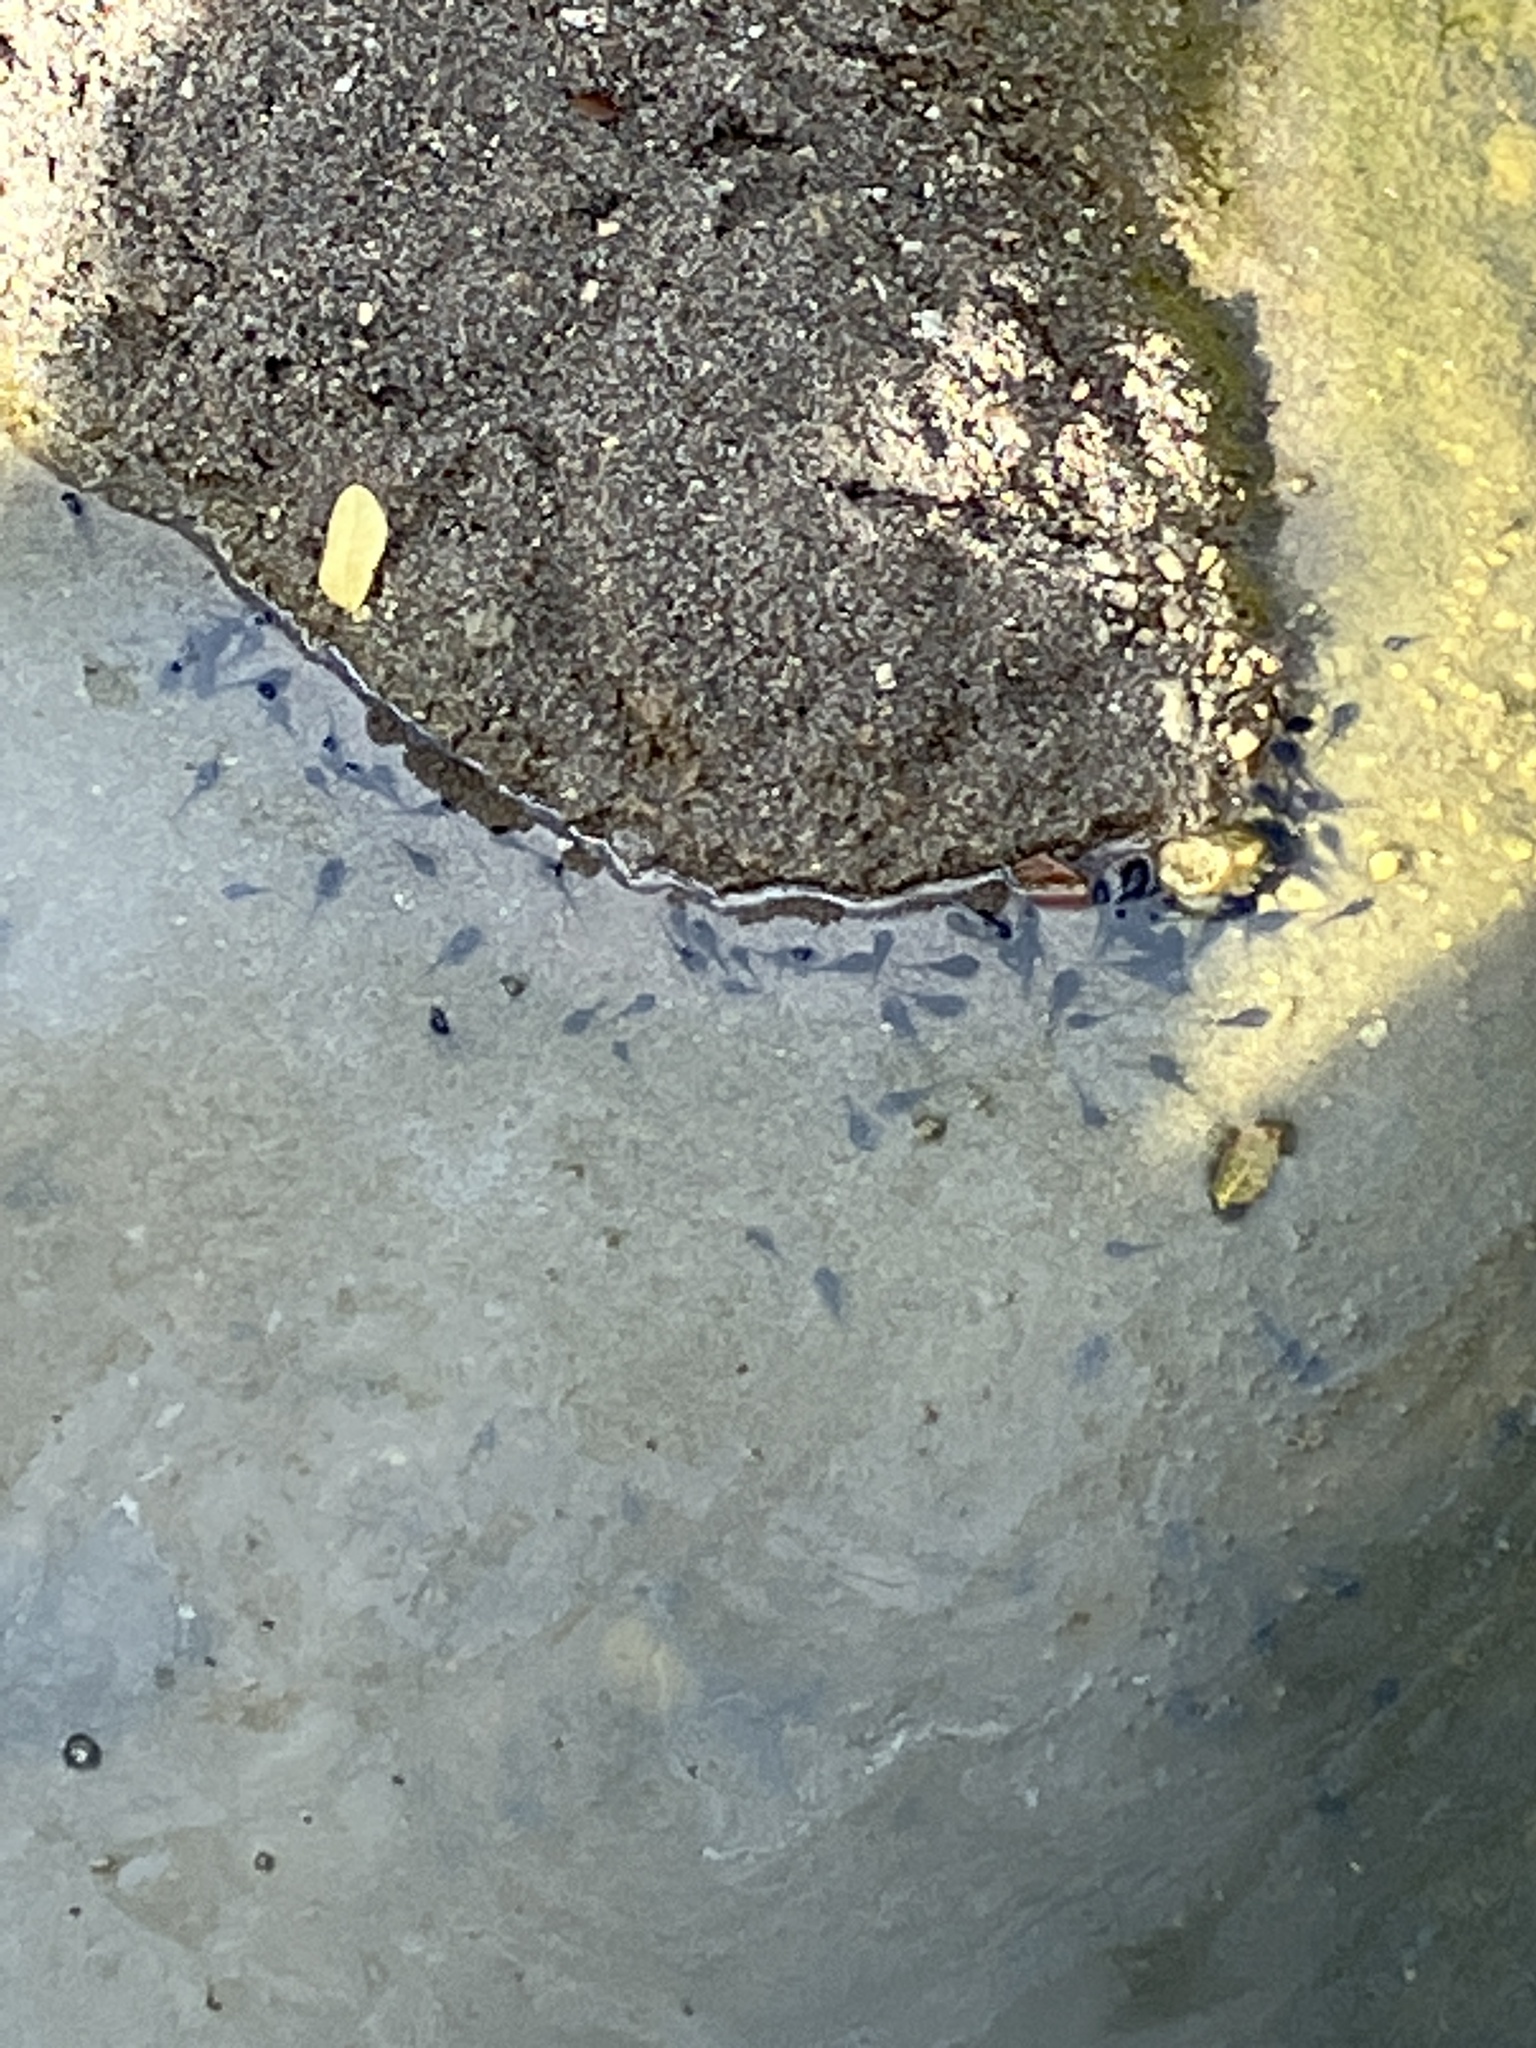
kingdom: Animalia
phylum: Chordata
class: Amphibia
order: Anura
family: Bufonidae
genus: Rhinella
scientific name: Rhinella marina
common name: Cane toad
